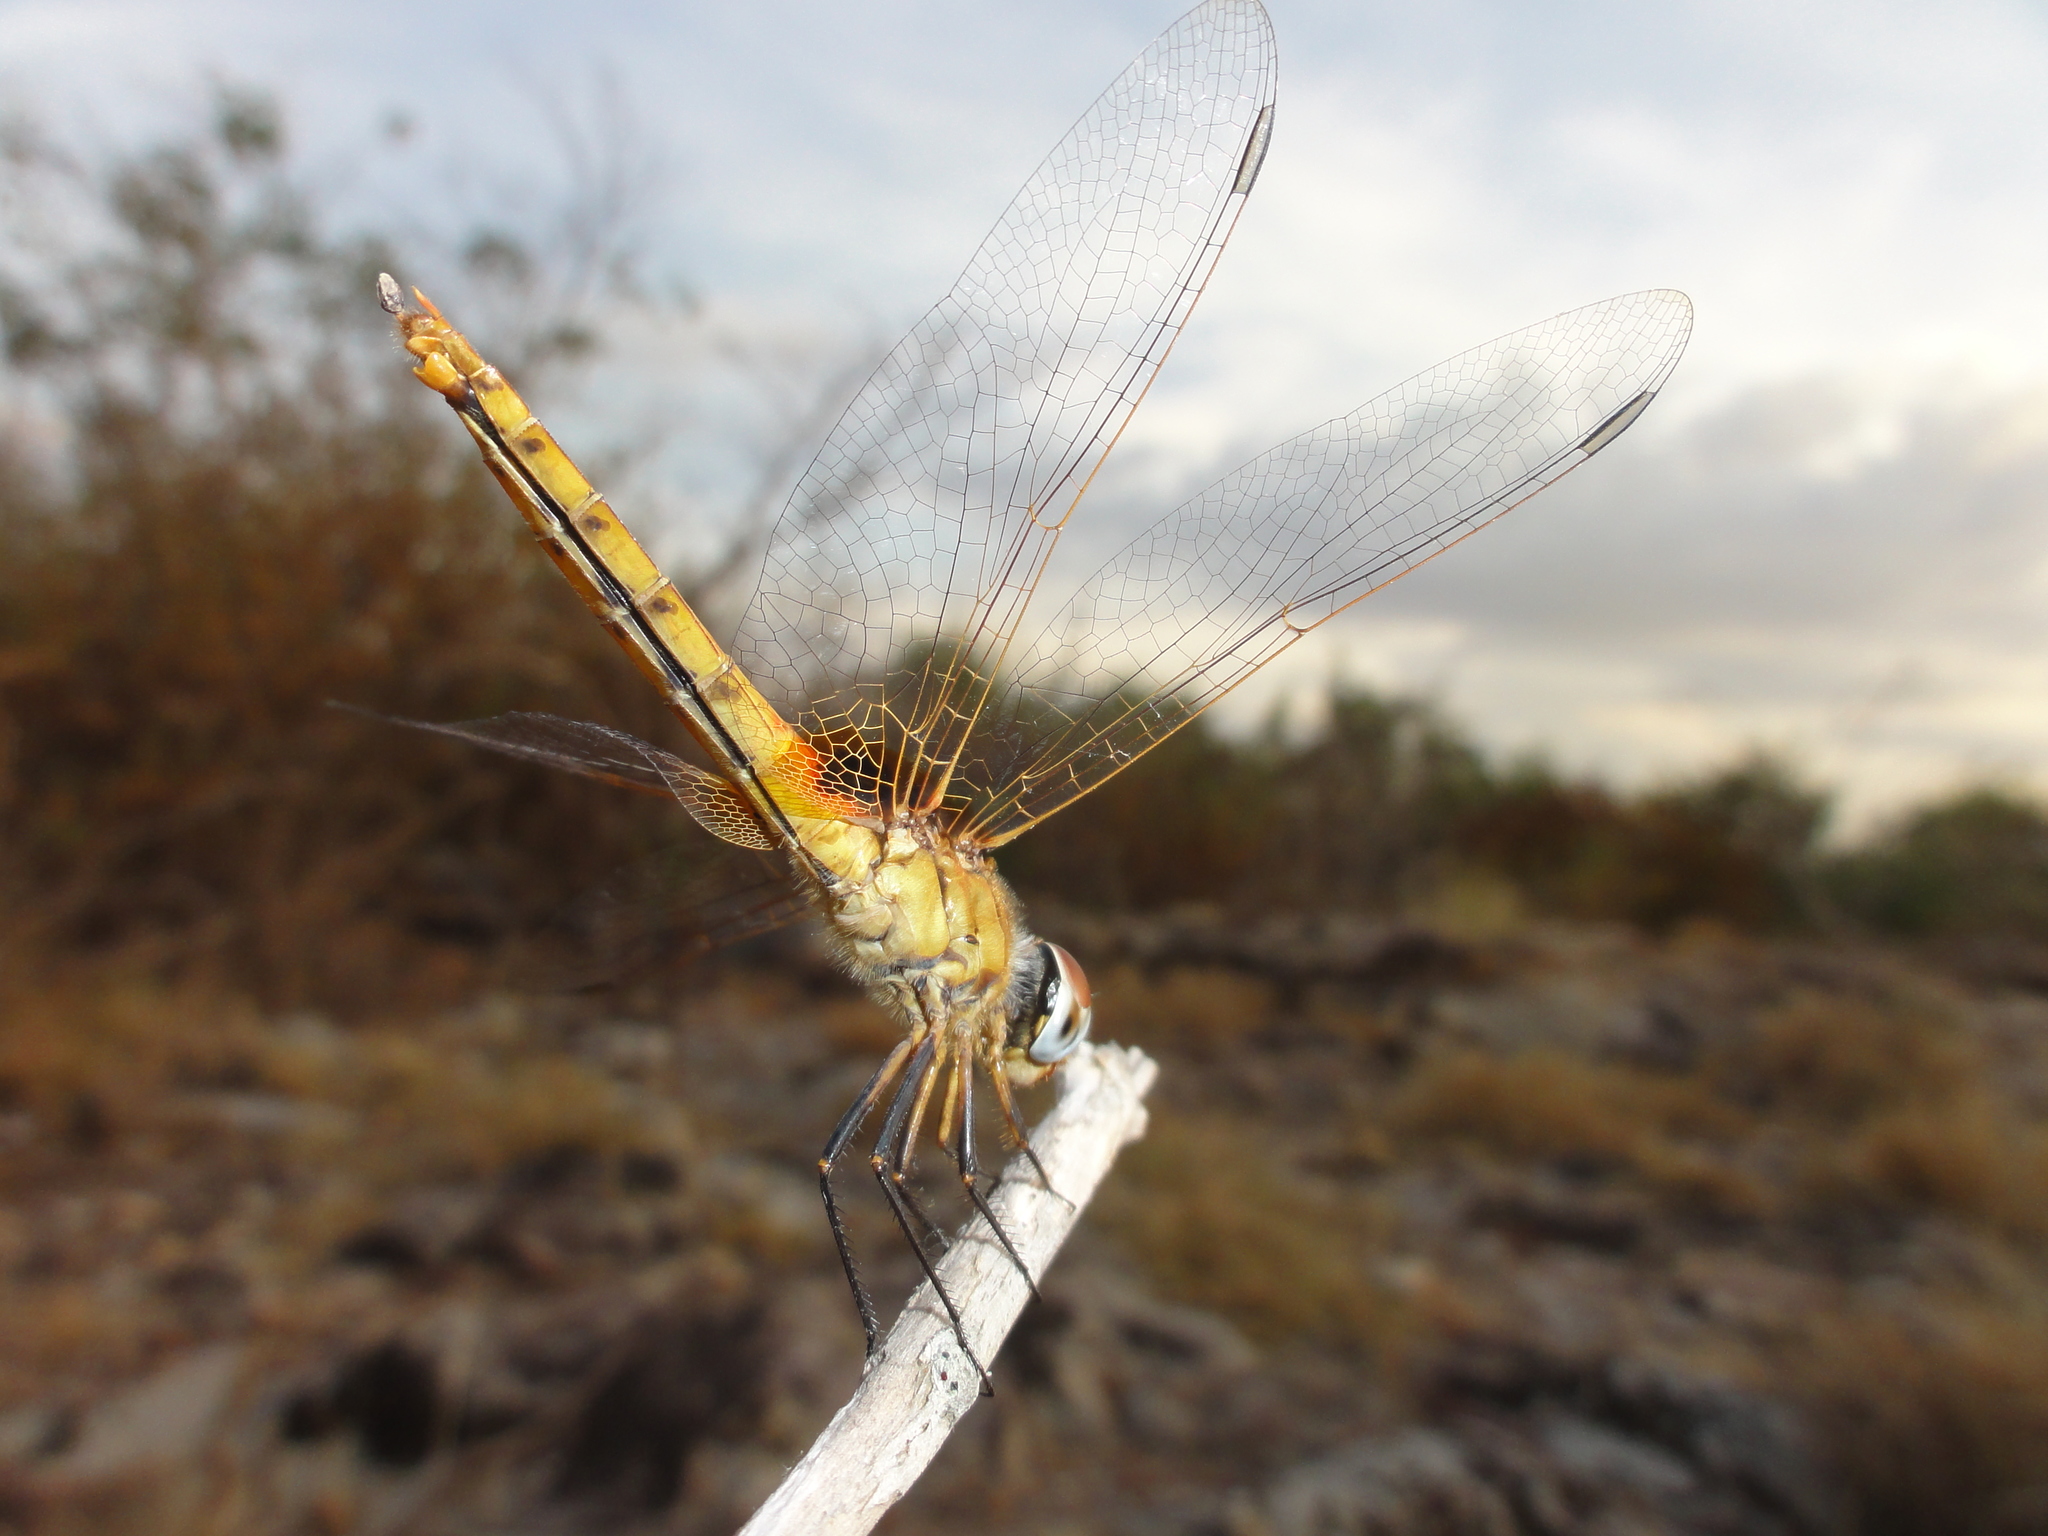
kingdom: Animalia
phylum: Arthropoda
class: Insecta
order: Odonata
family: Libellulidae
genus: Aethriamanta
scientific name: Aethriamanta aethra
